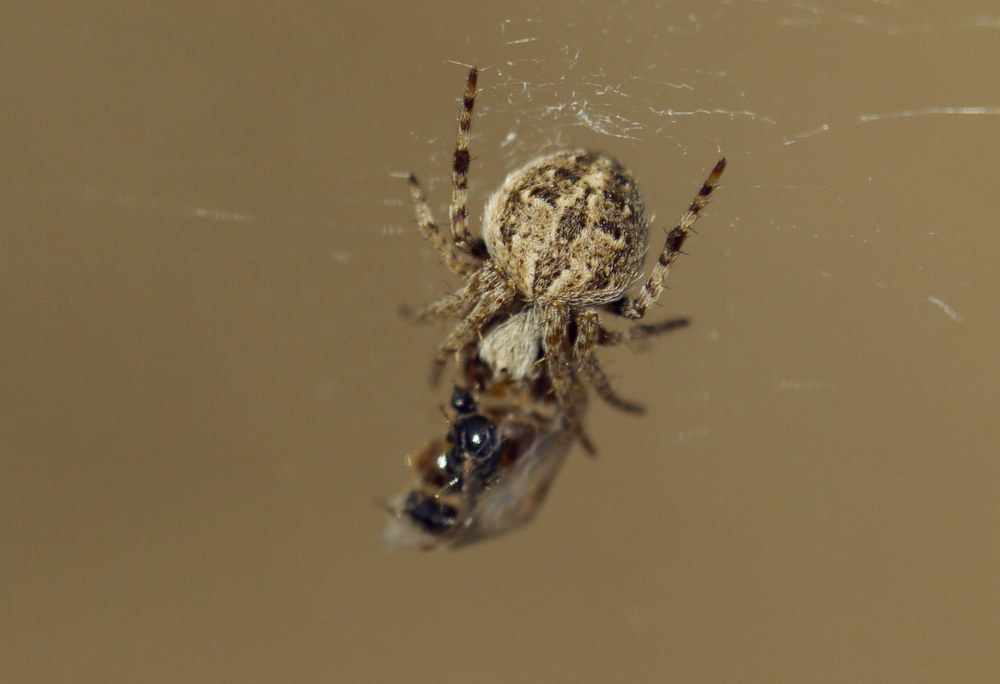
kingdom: Animalia
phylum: Arthropoda
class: Arachnida
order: Araneae
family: Araneidae
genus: Agalenatea
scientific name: Agalenatea redii
